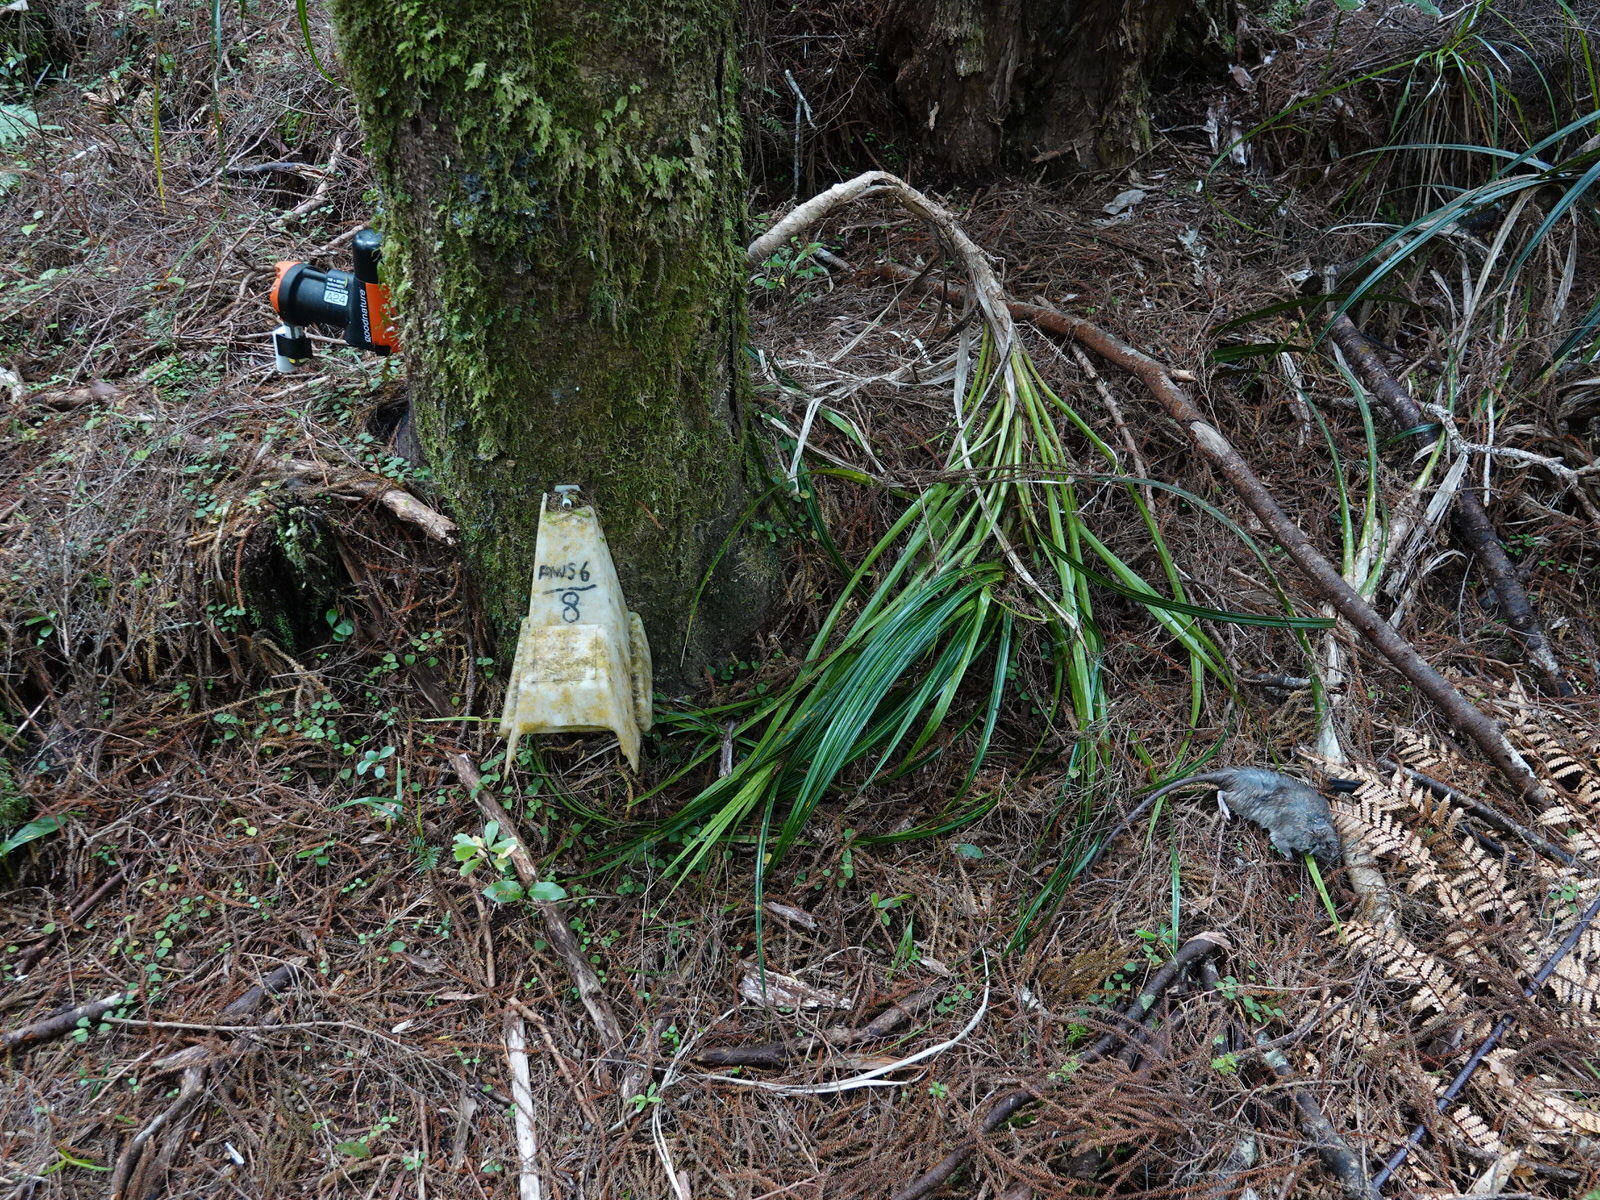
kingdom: Animalia
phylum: Chordata
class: Mammalia
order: Rodentia
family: Muridae
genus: Rattus
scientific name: Rattus rattus
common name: Black rat
